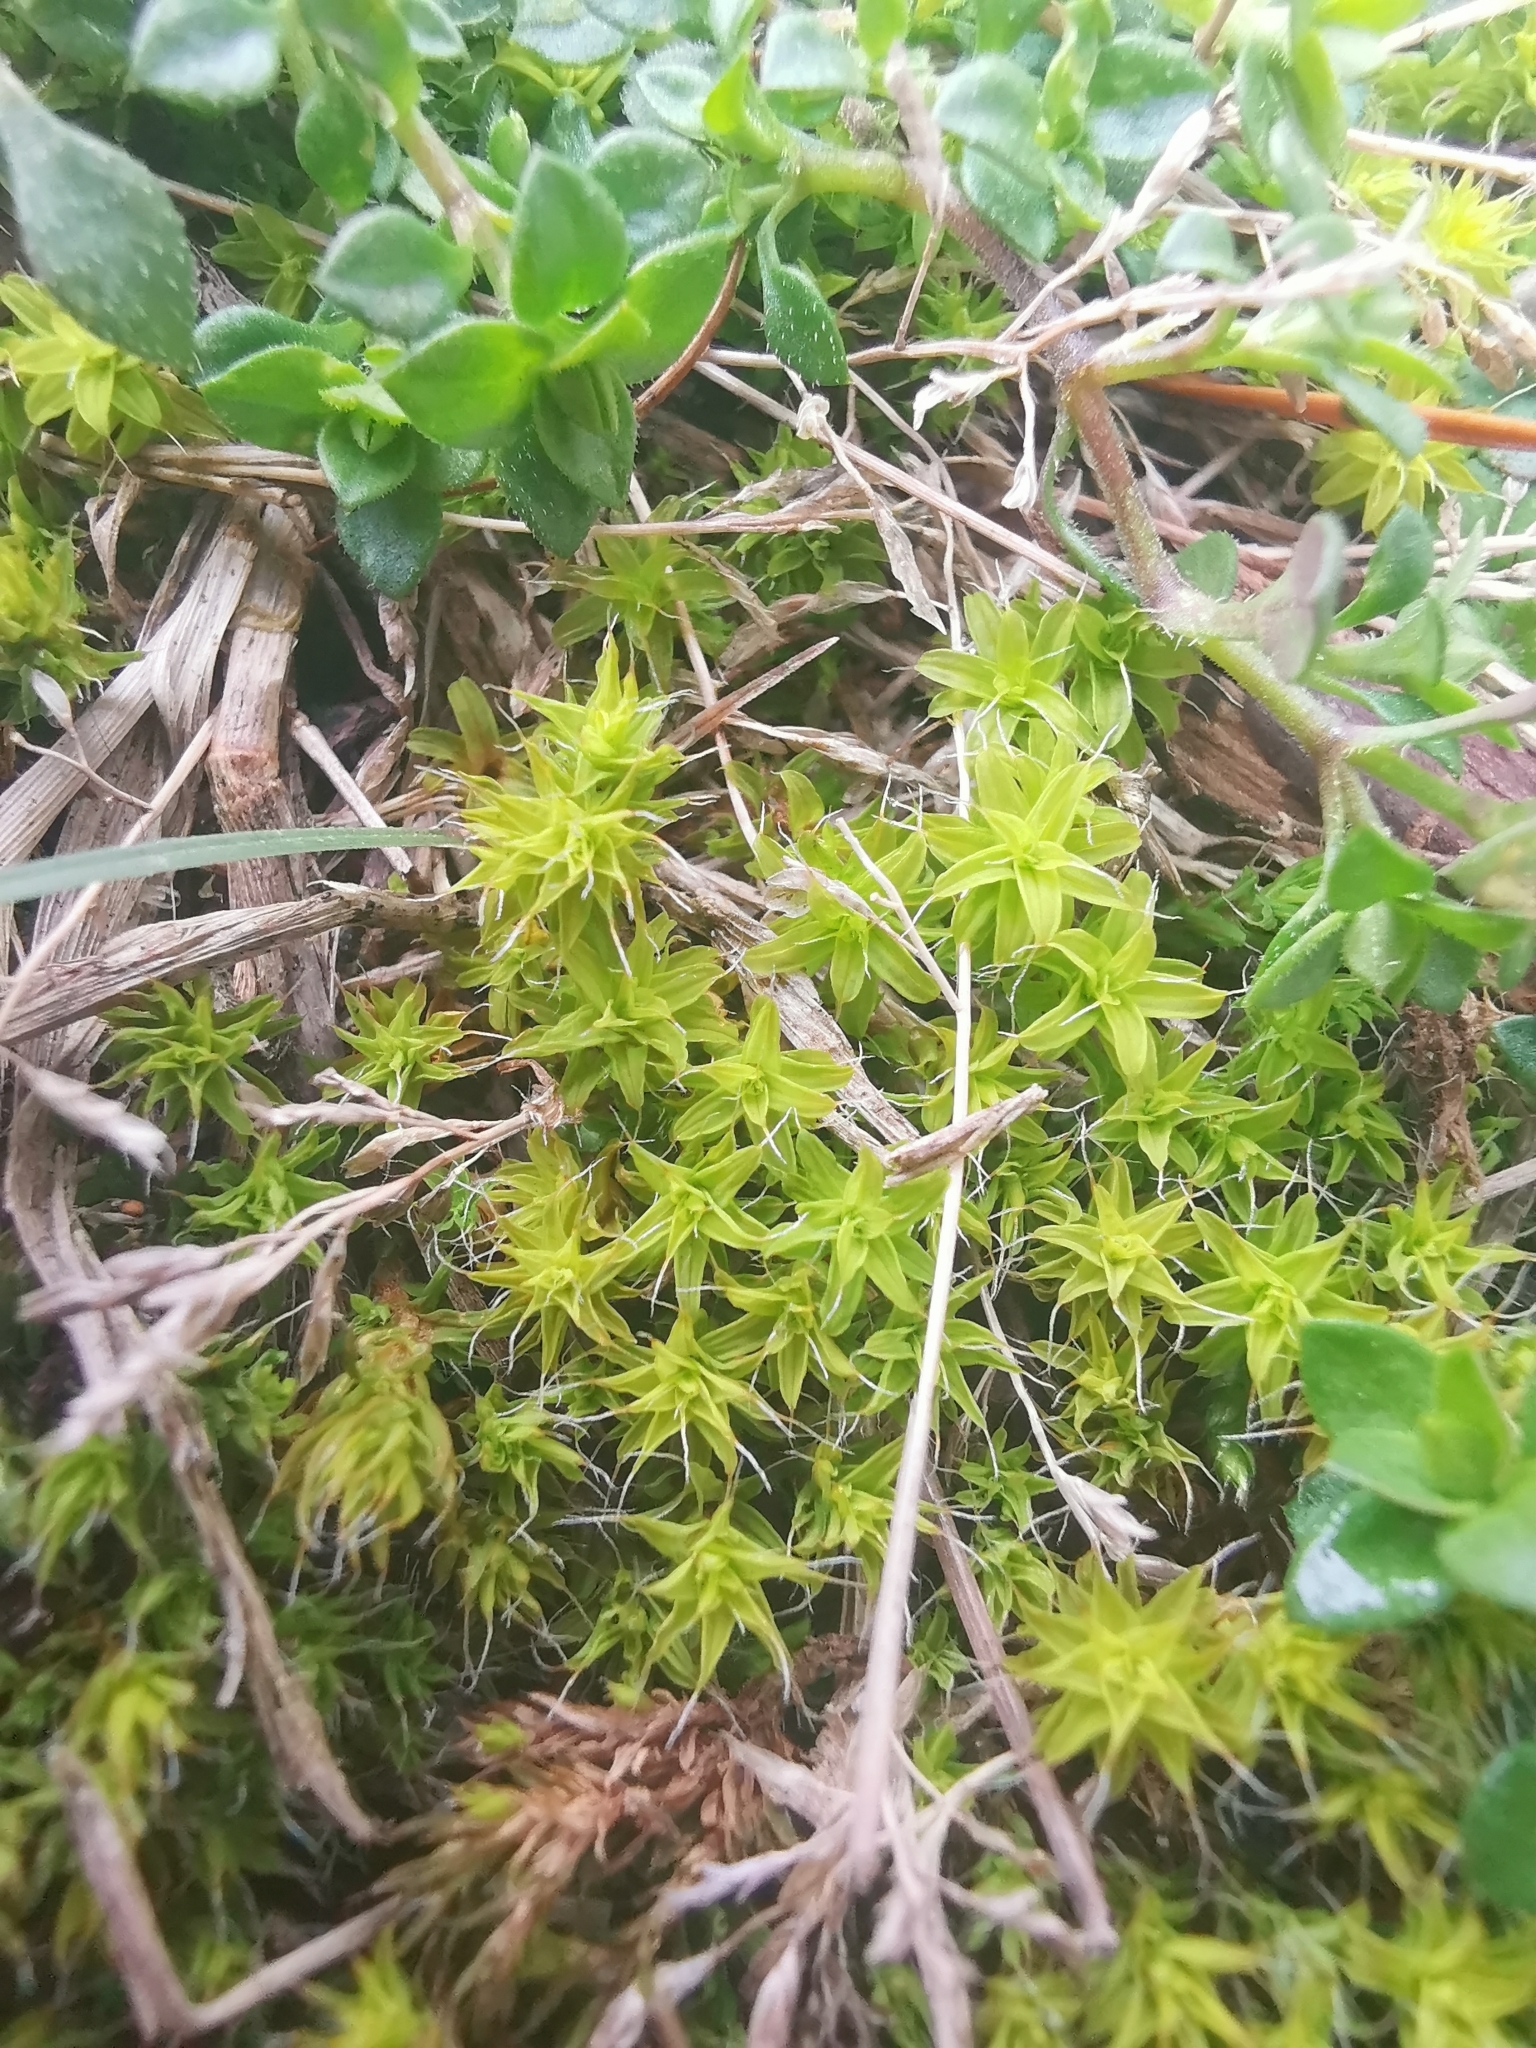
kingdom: Plantae
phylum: Bryophyta
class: Bryopsida
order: Pottiales
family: Pottiaceae
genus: Syntrichia
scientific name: Syntrichia ruralis
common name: Sidewalk screw moss
